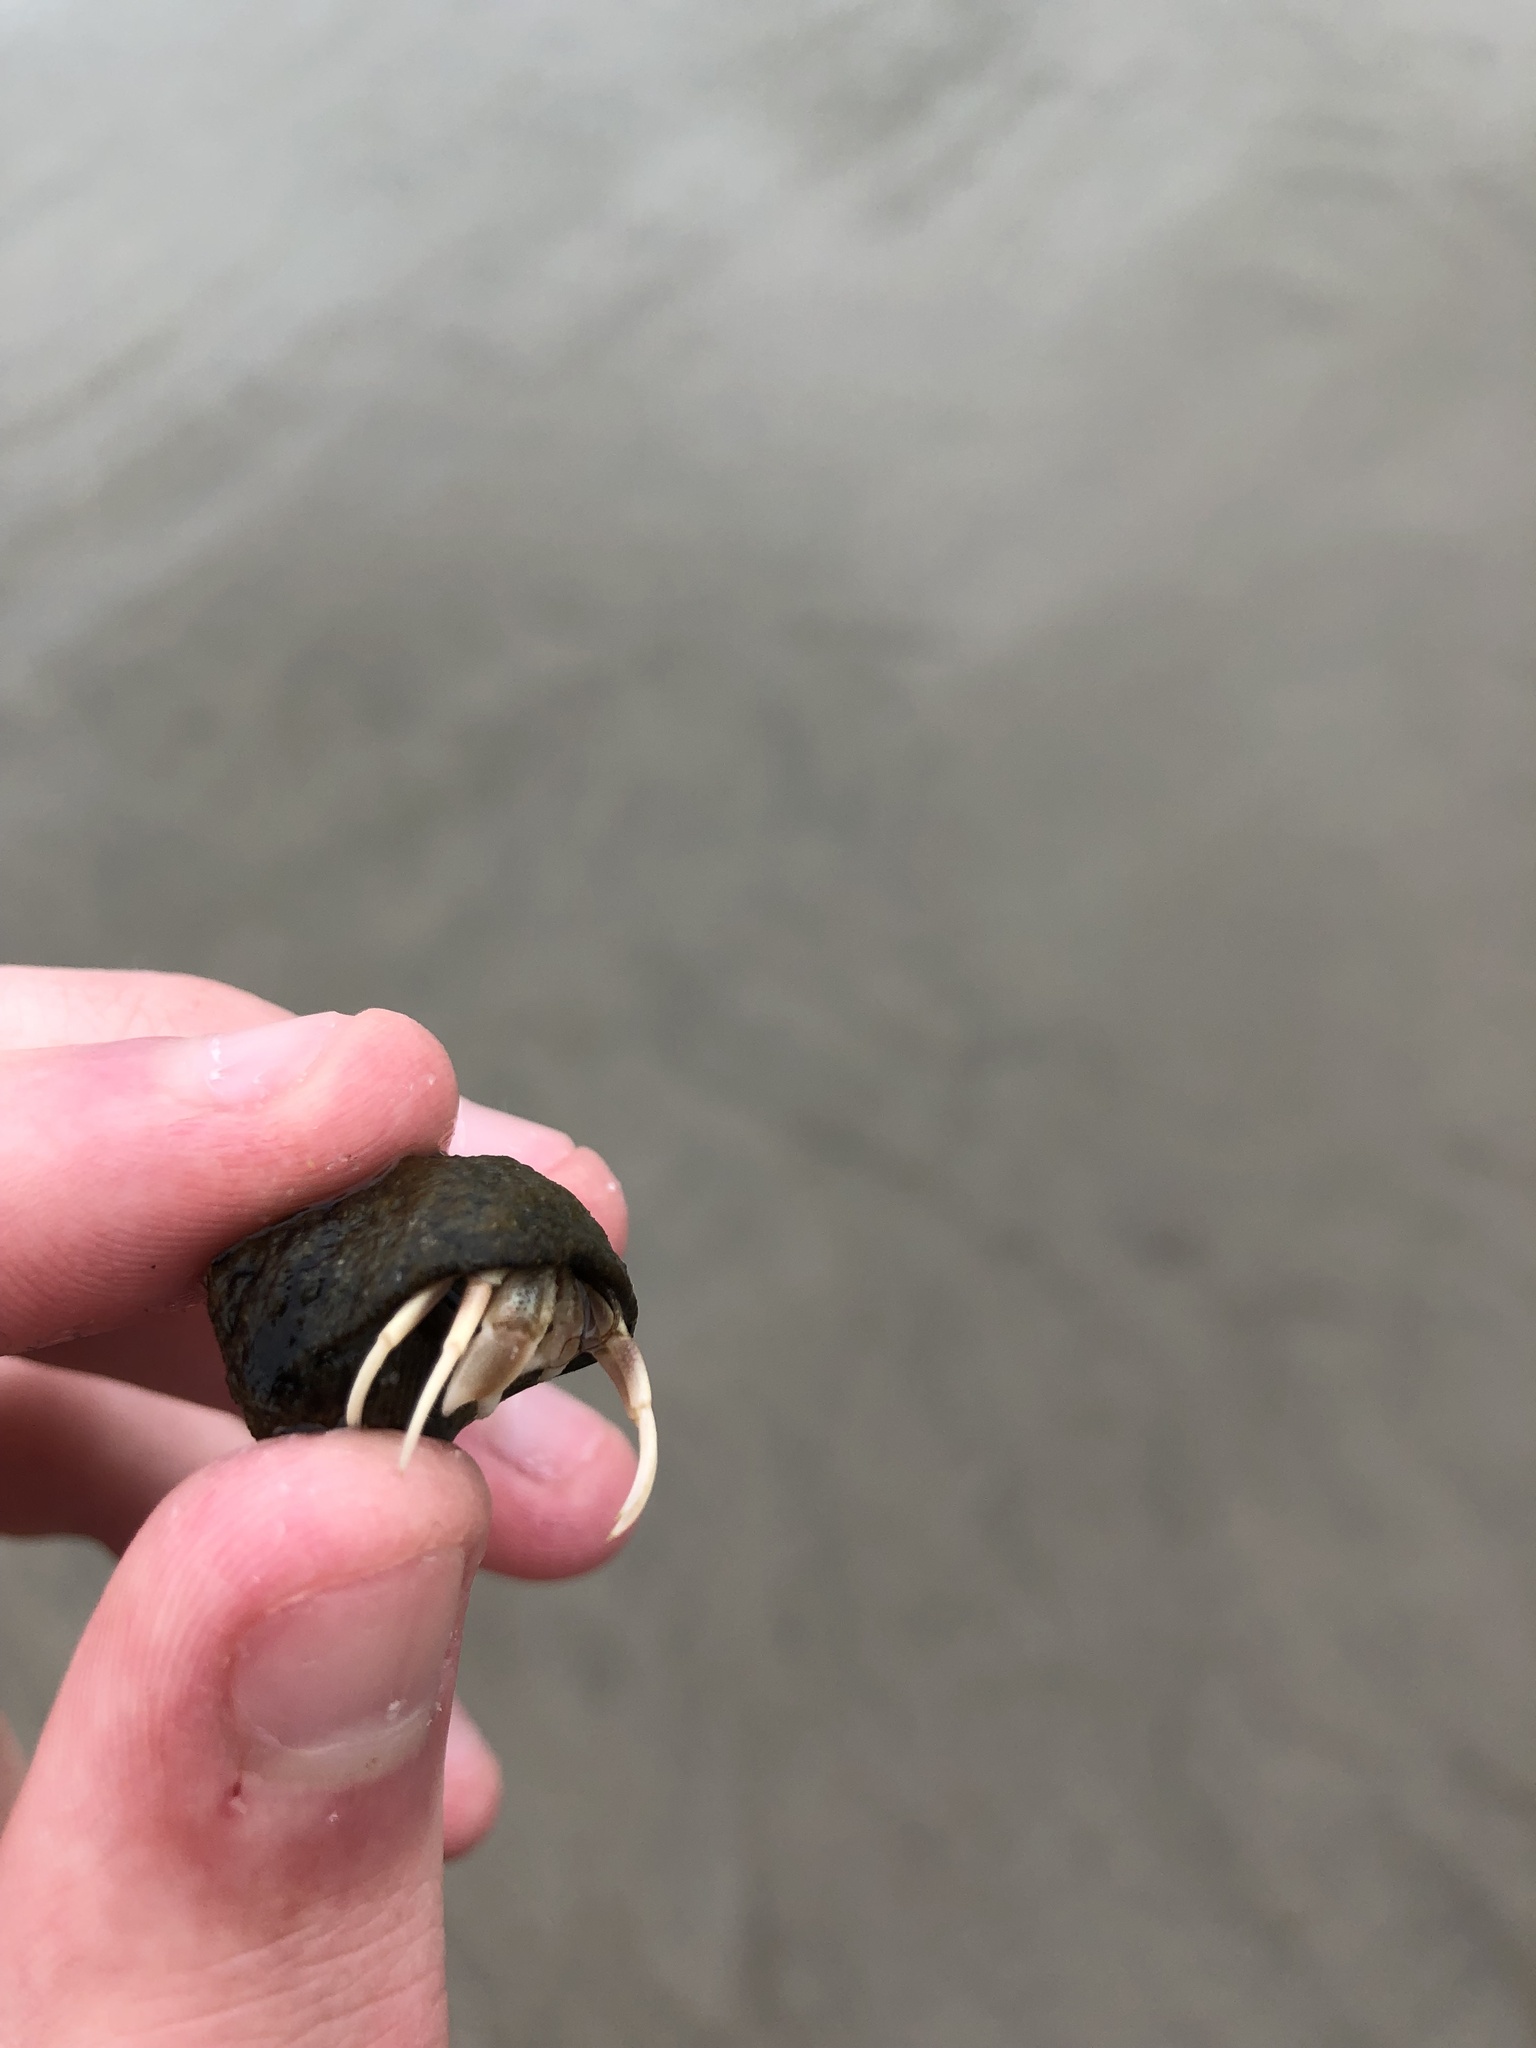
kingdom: Animalia
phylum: Arthropoda
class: Malacostraca
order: Decapoda
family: Paguridae
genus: Pagurus
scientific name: Pagurus longicarpus
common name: Long-armed hermit crab
